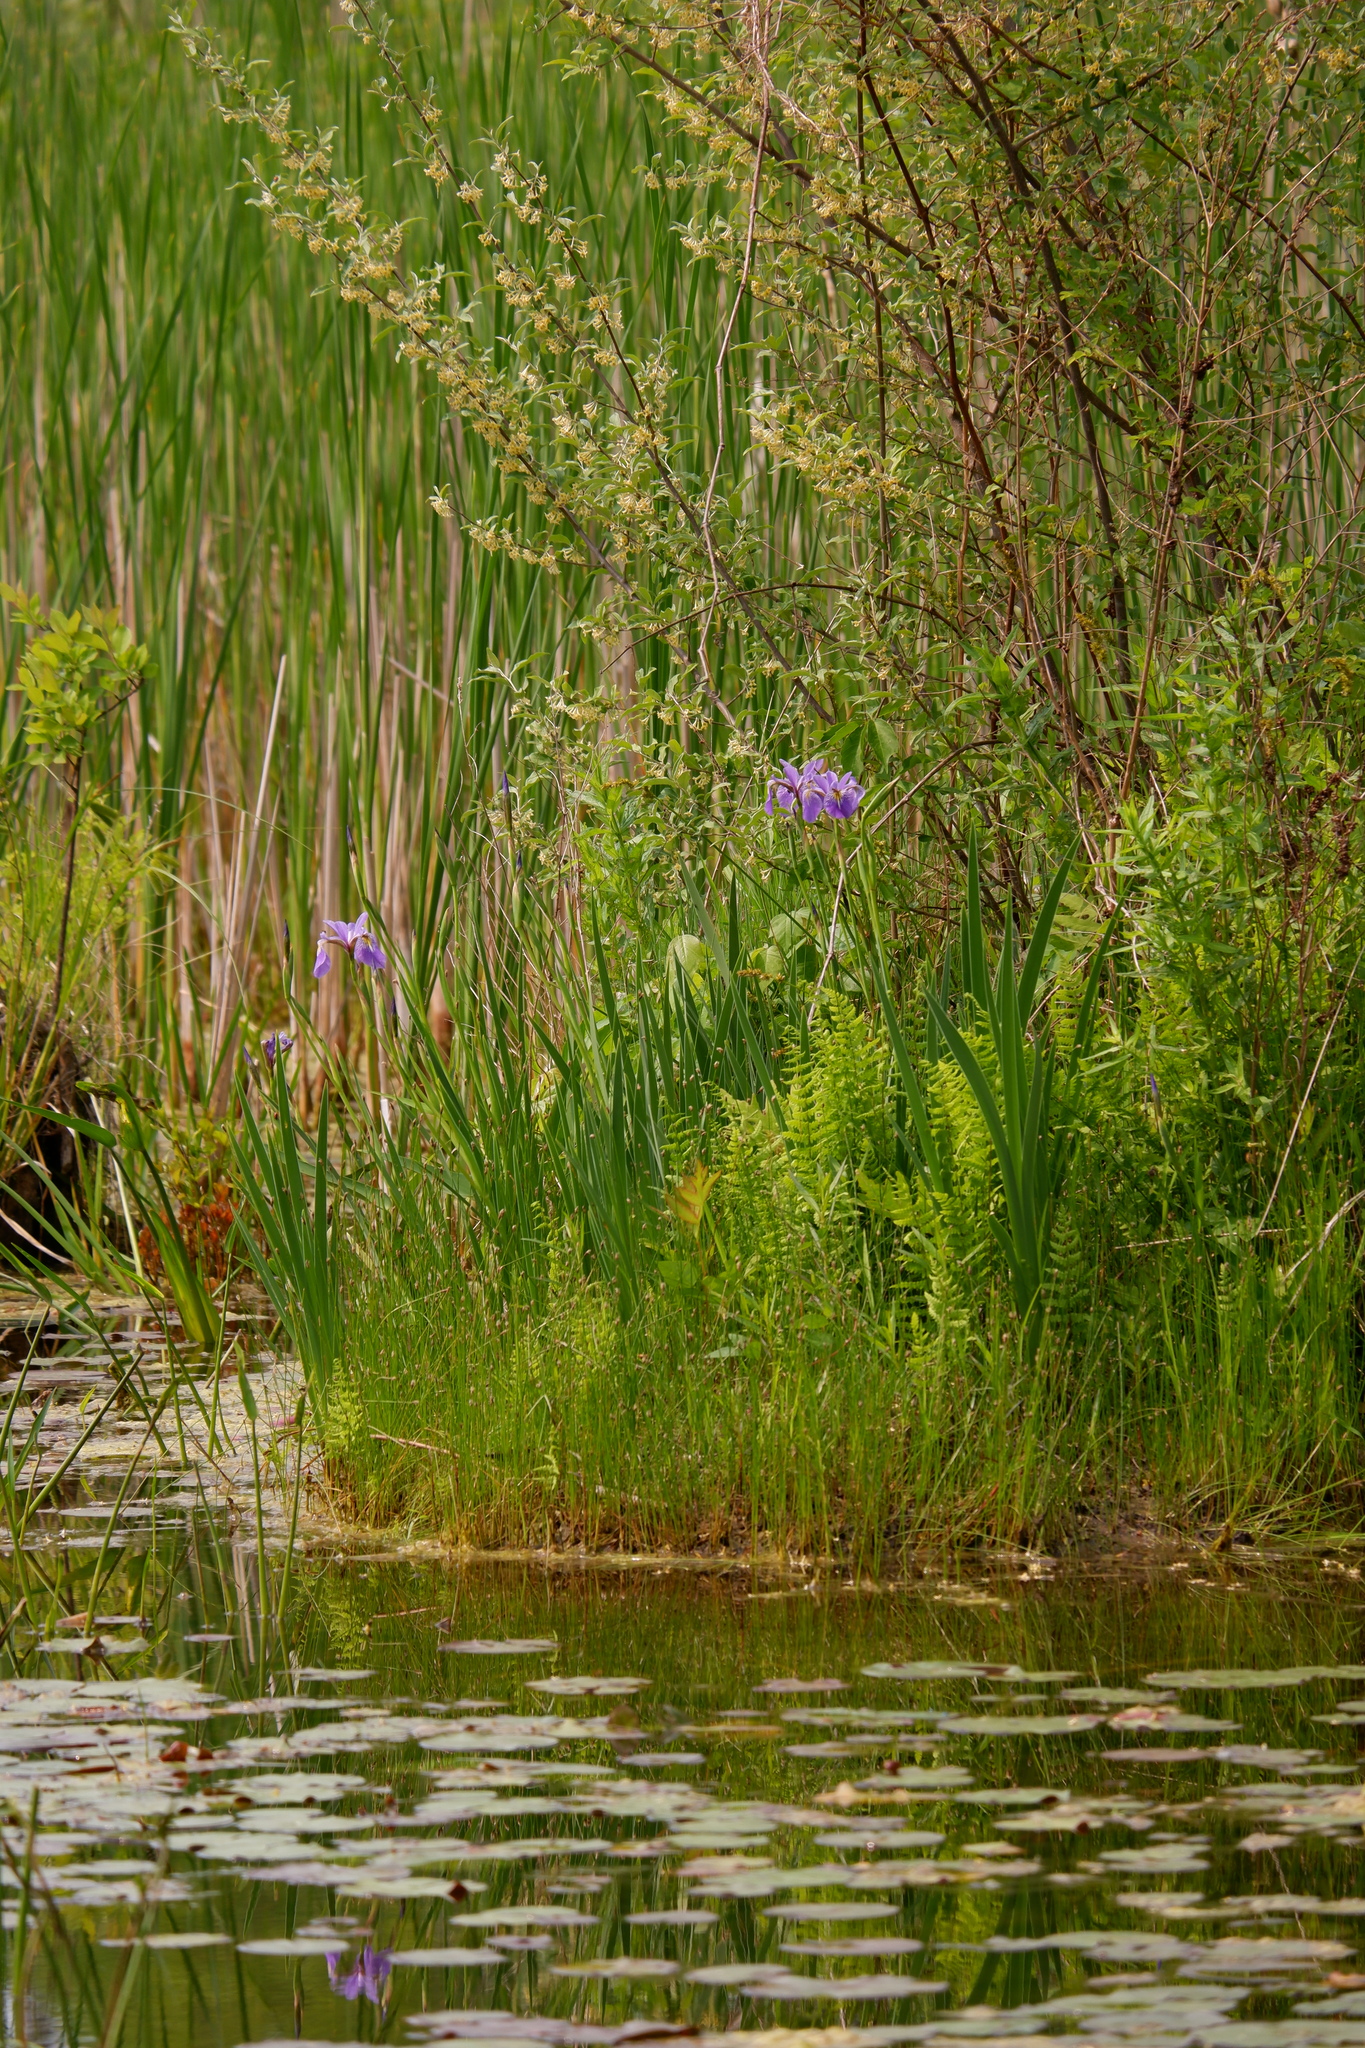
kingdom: Plantae
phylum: Tracheophyta
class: Liliopsida
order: Asparagales
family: Iridaceae
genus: Iris
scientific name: Iris versicolor
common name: Purple iris
